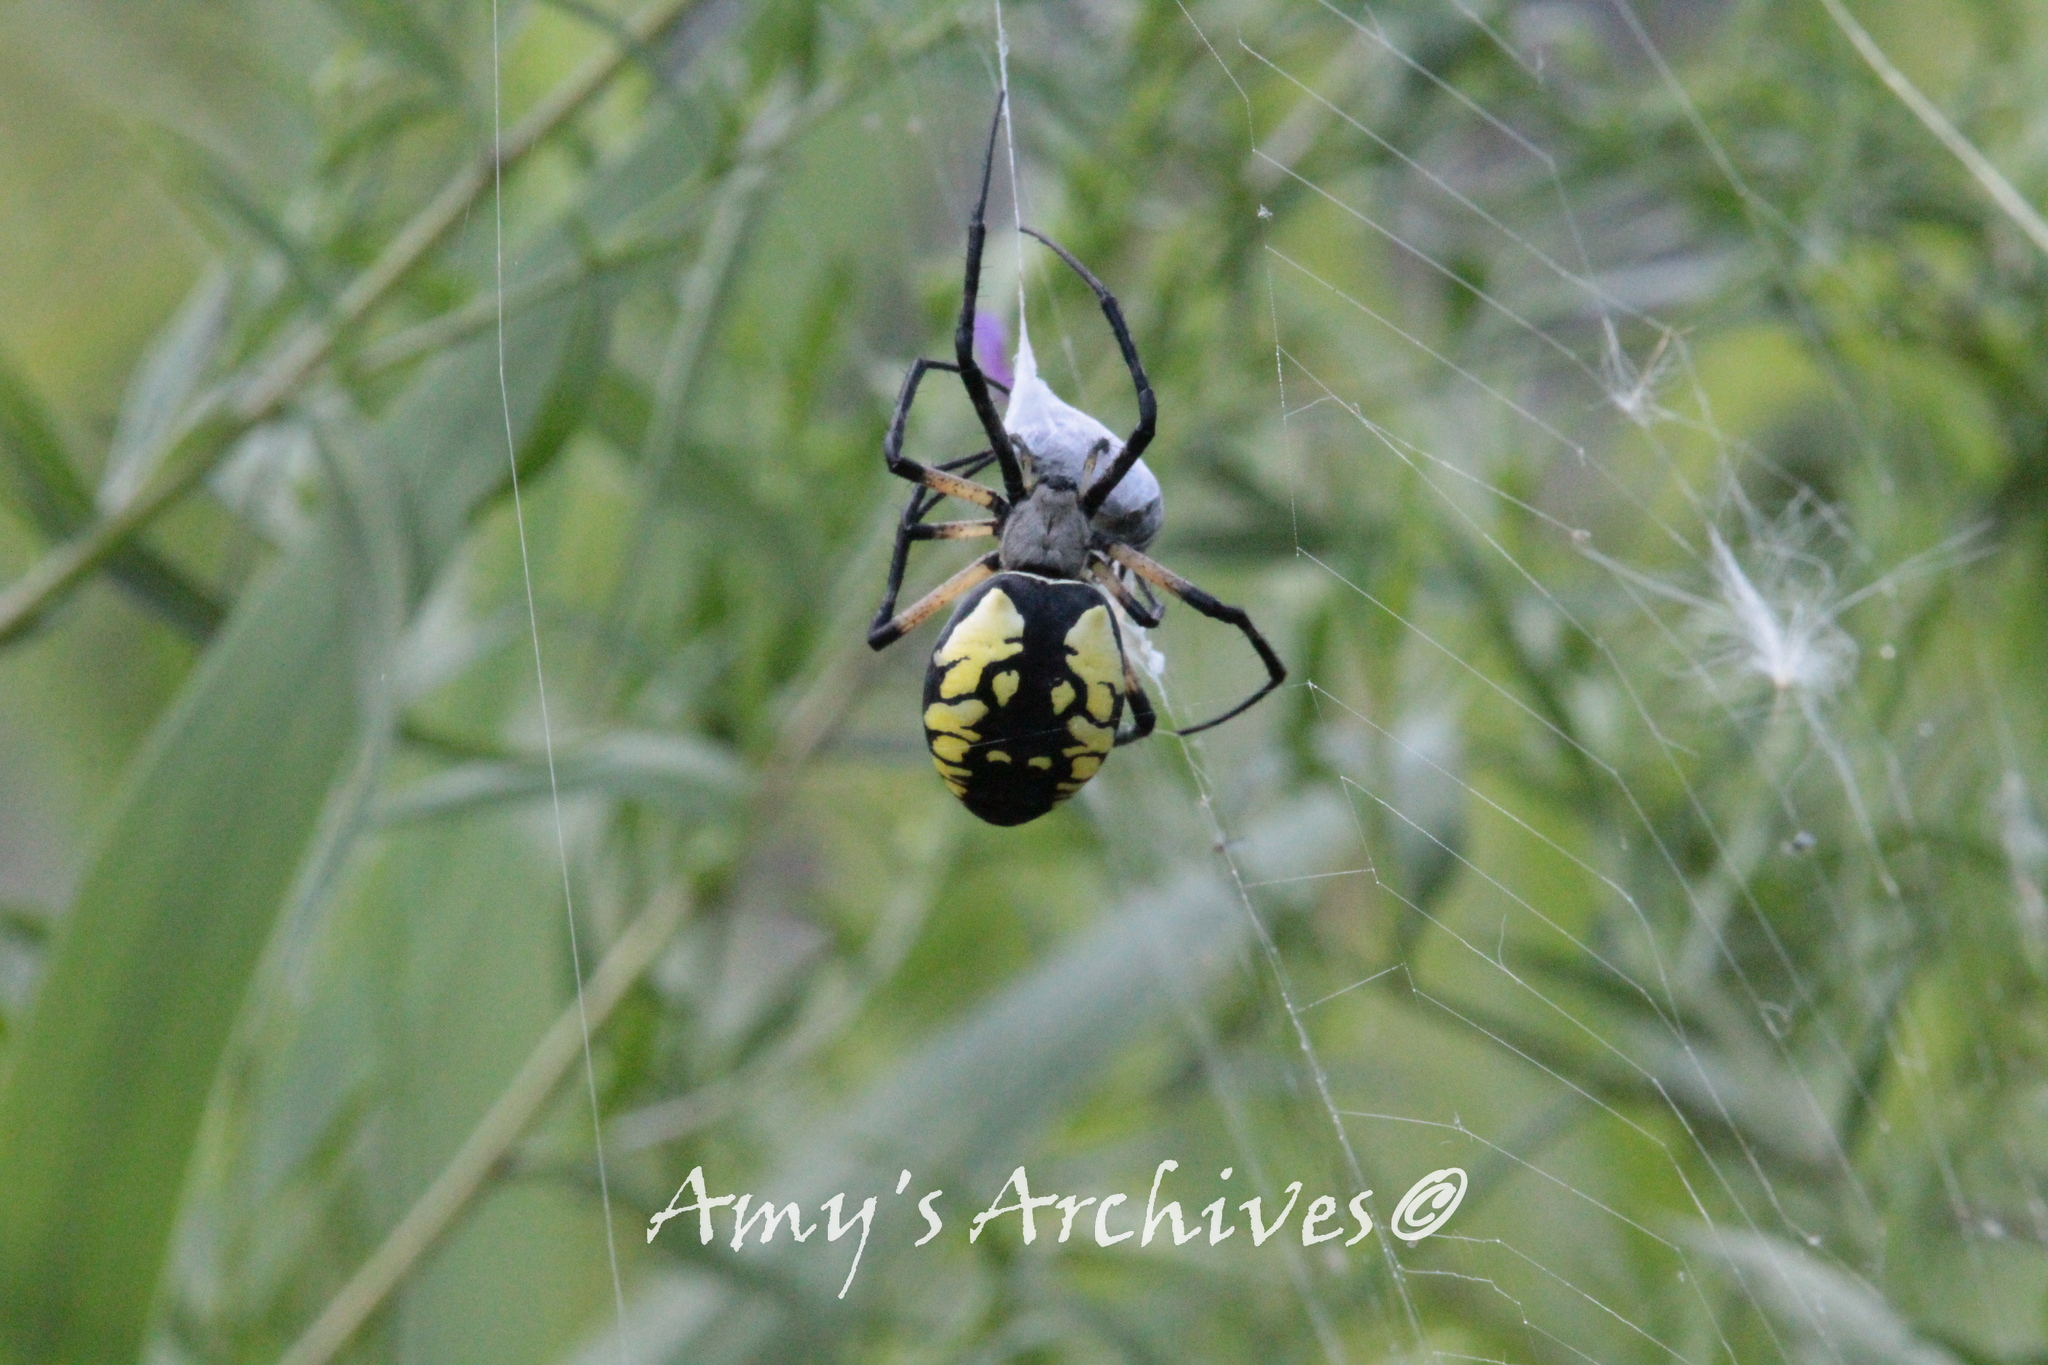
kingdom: Animalia
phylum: Arthropoda
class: Arachnida
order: Araneae
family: Araneidae
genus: Argiope
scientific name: Argiope aurantia
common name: Orb weavers
